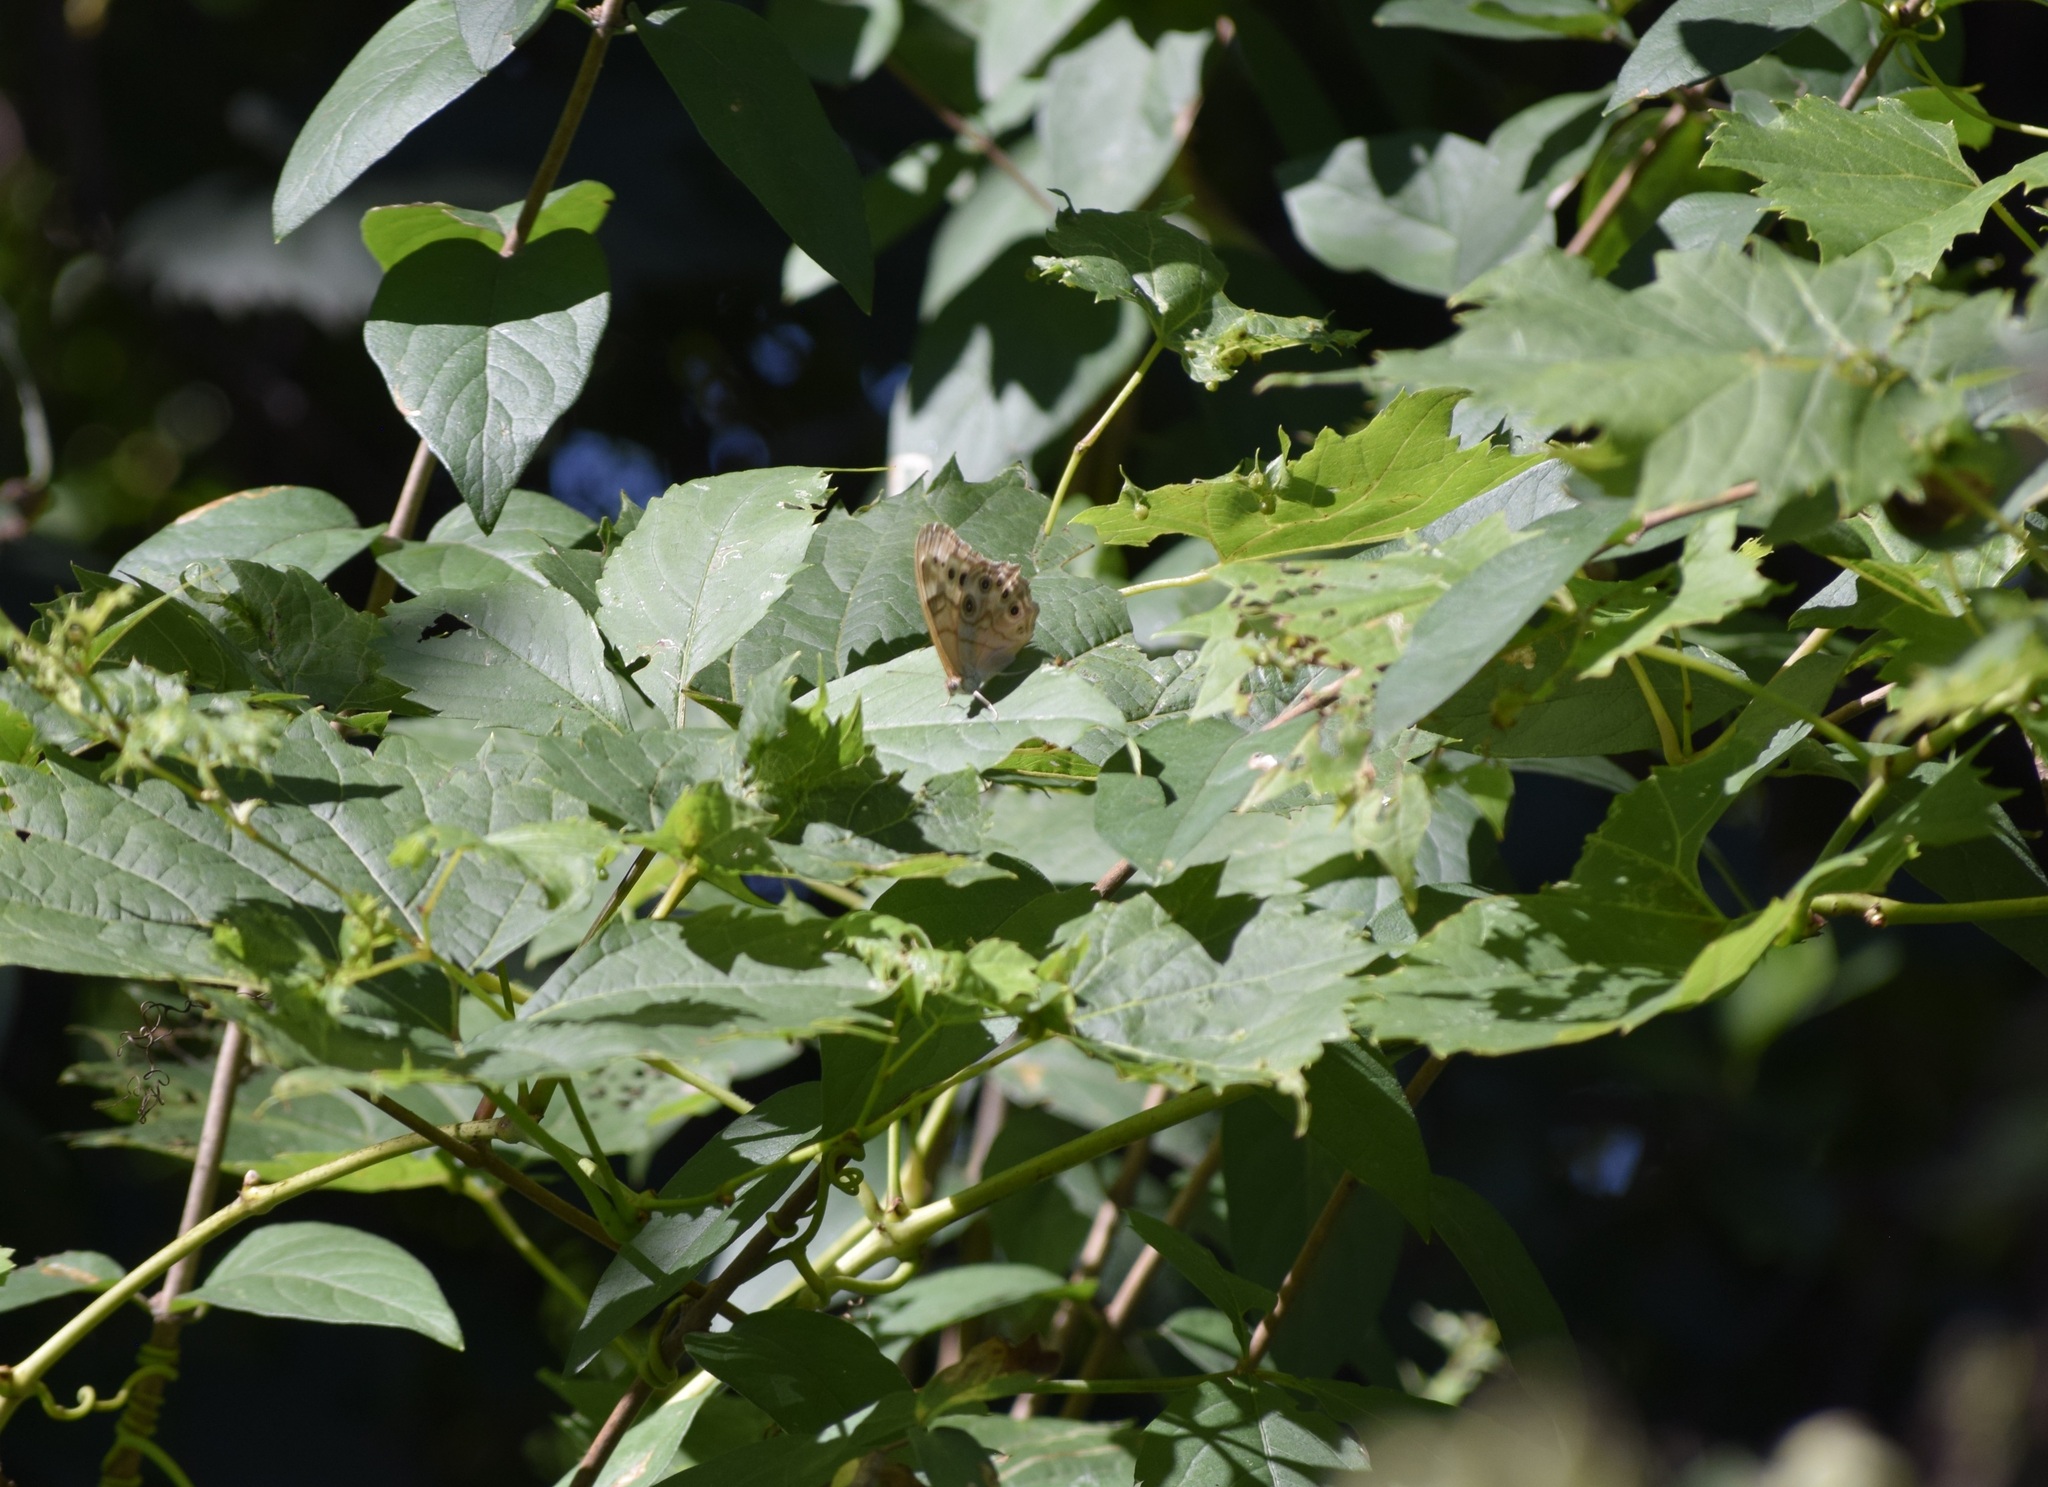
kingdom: Animalia
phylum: Arthropoda
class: Insecta
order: Lepidoptera
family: Nymphalidae
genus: Lethe
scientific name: Lethe anthedon
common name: Northern pearly-eye
